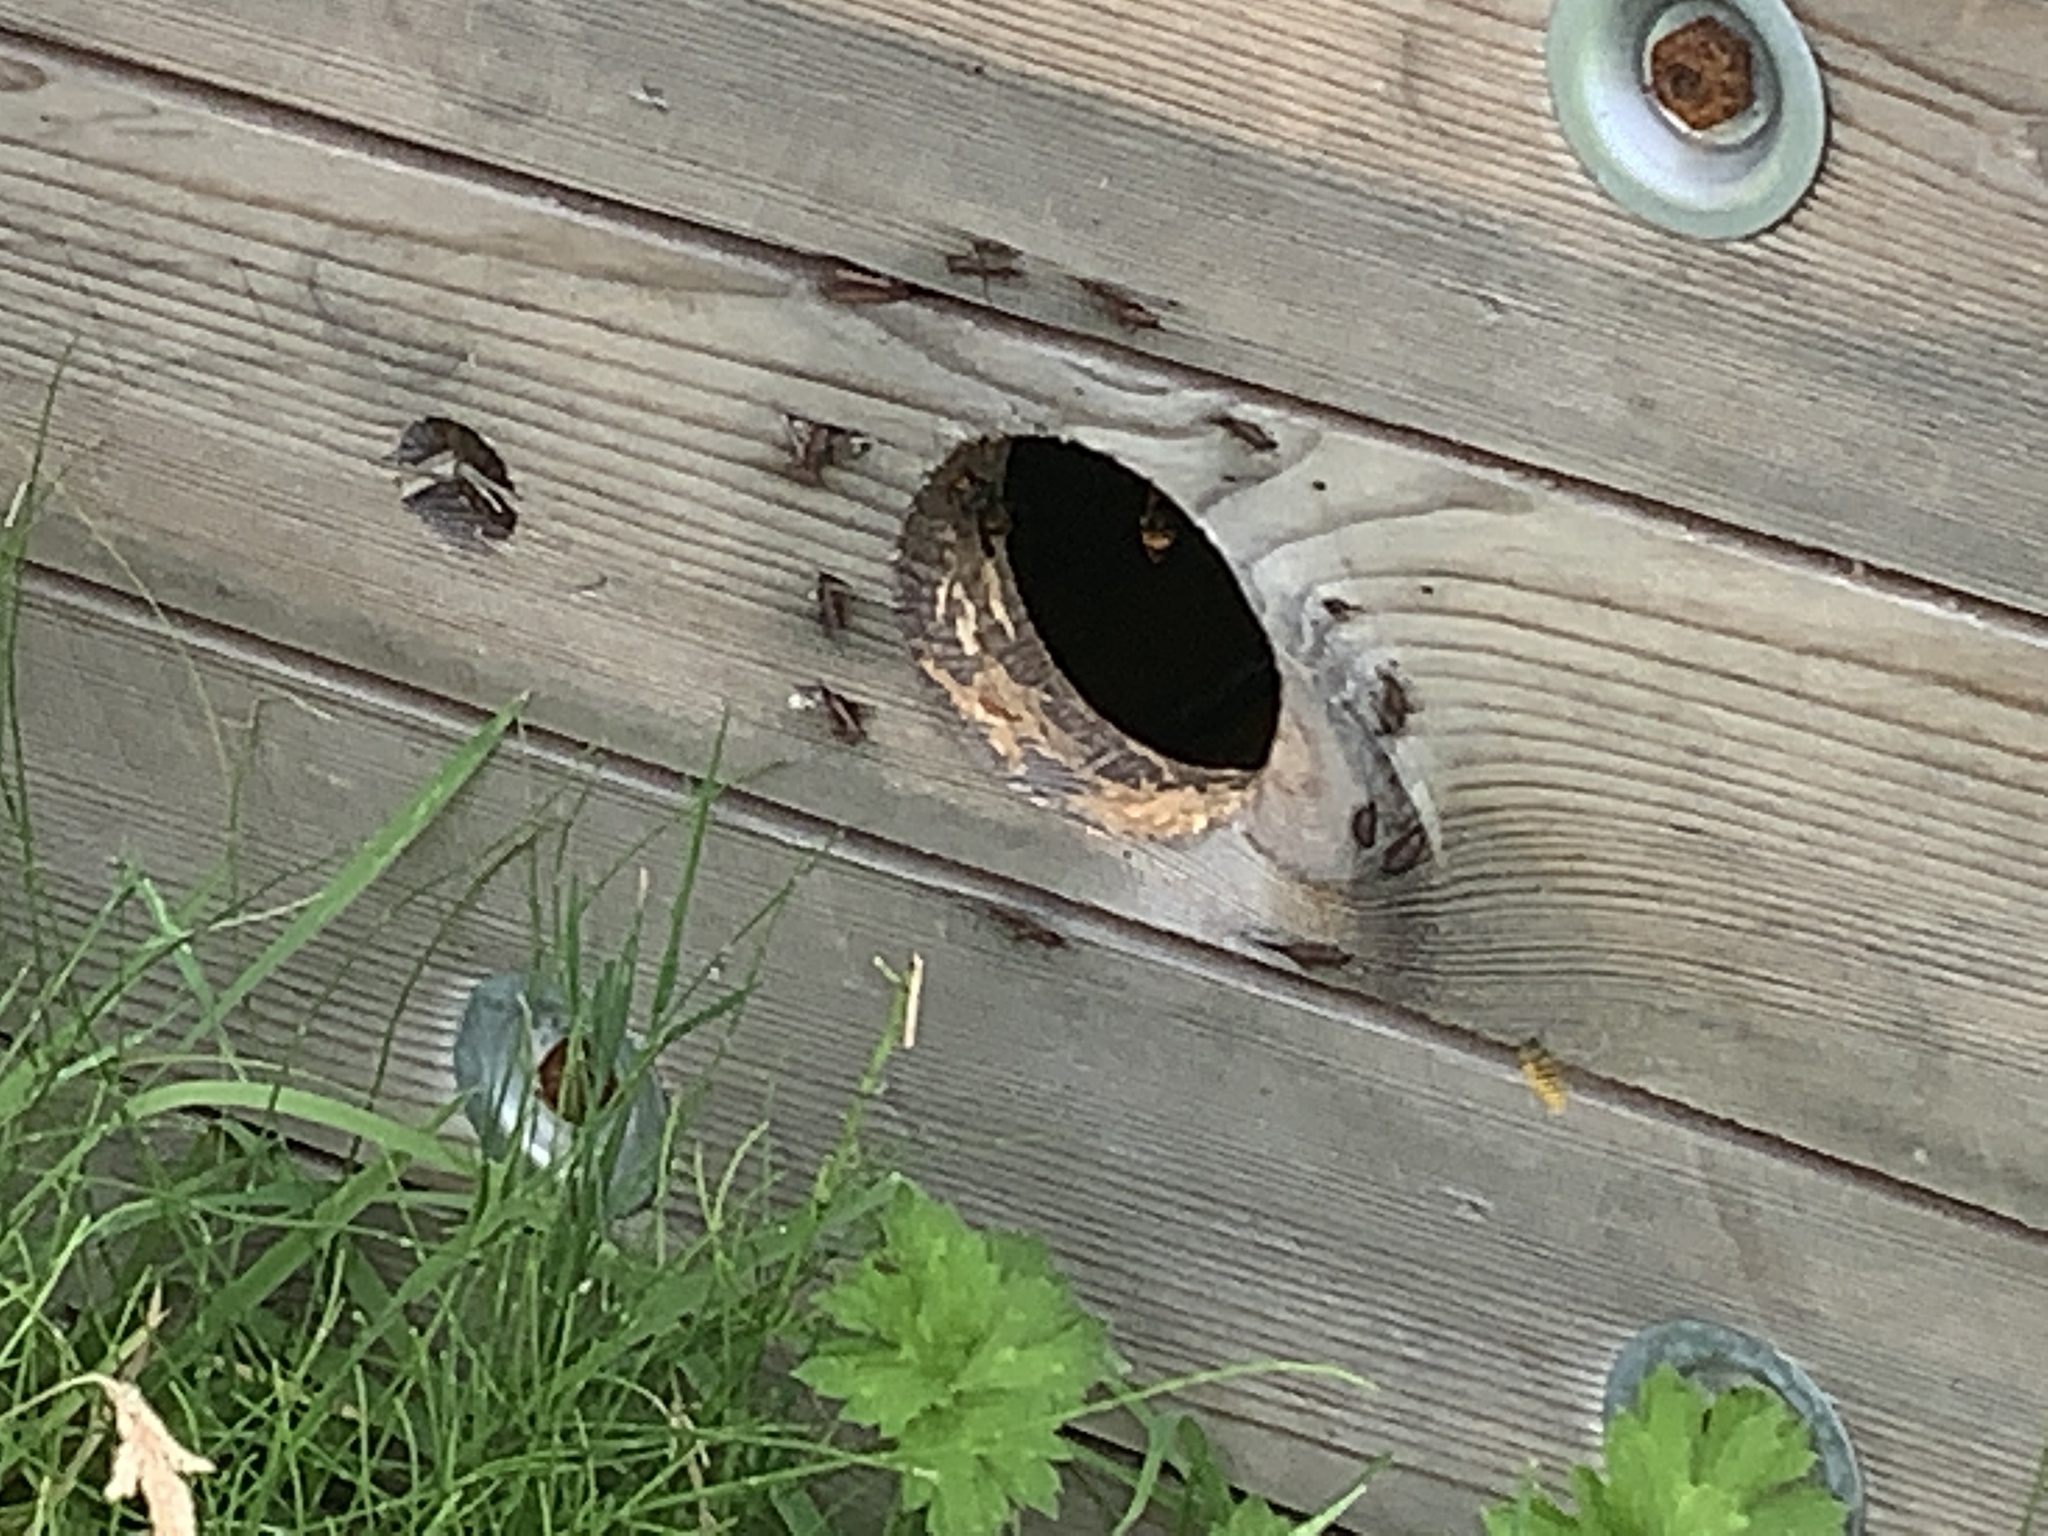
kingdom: Animalia
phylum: Arthropoda
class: Insecta
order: Hymenoptera
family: Vespidae
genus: Vespa
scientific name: Vespa velutina
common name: Asian hornet
